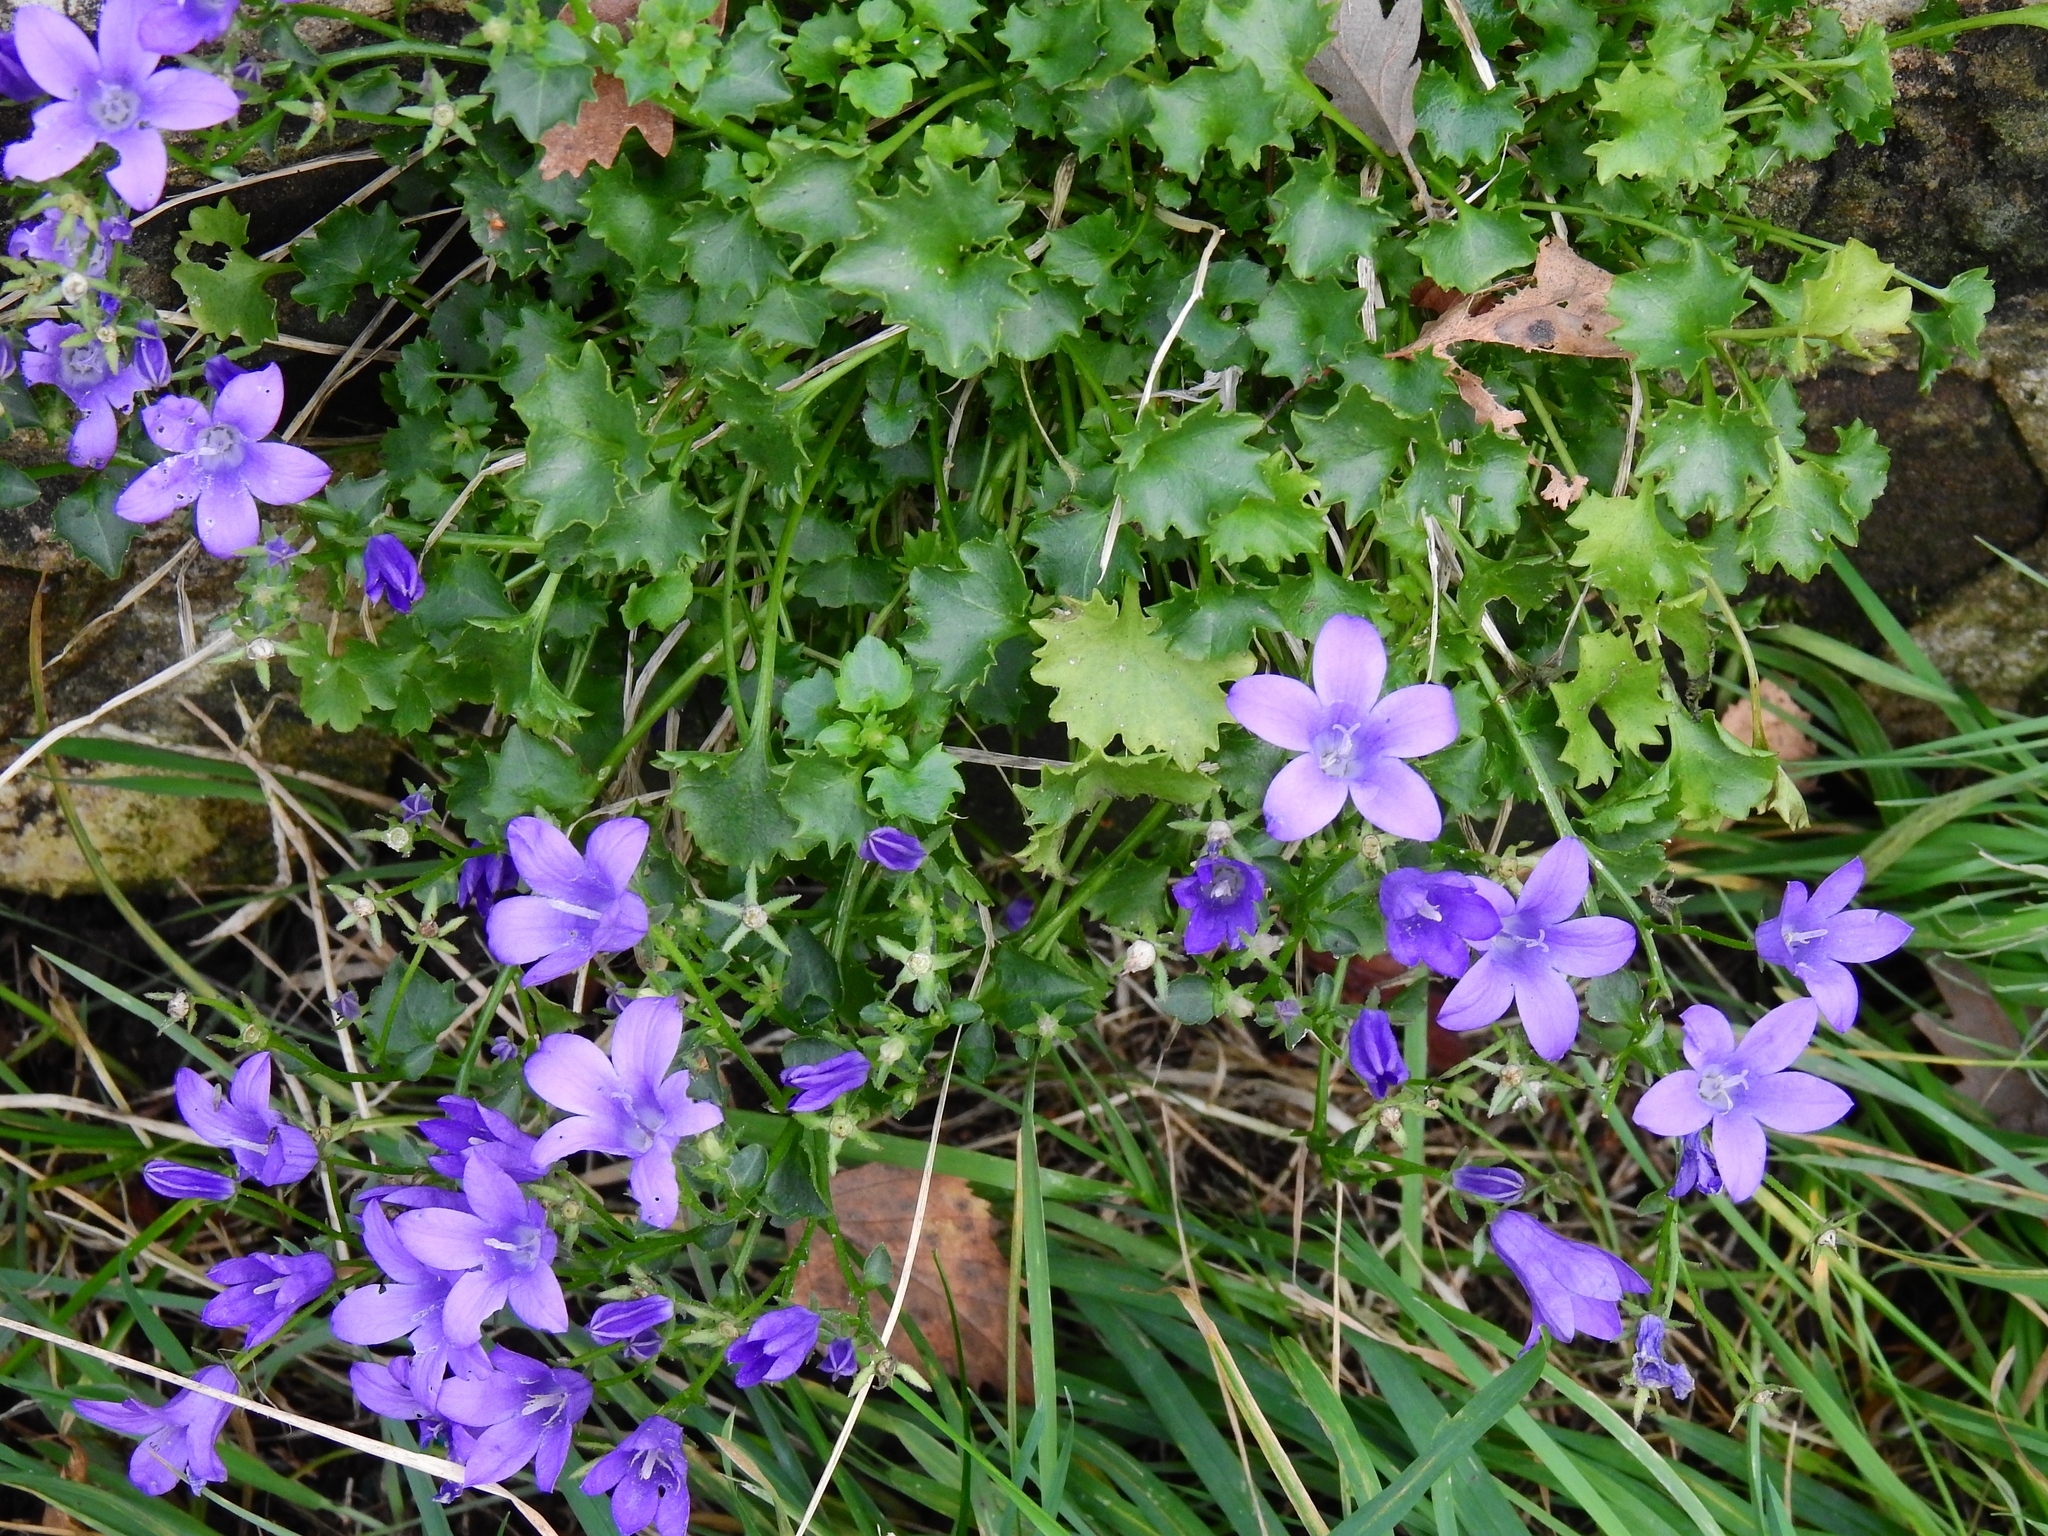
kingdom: Plantae
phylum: Tracheophyta
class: Magnoliopsida
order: Asterales
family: Campanulaceae
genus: Campanula
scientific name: Campanula portenschlagiana
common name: Adria bellflower
